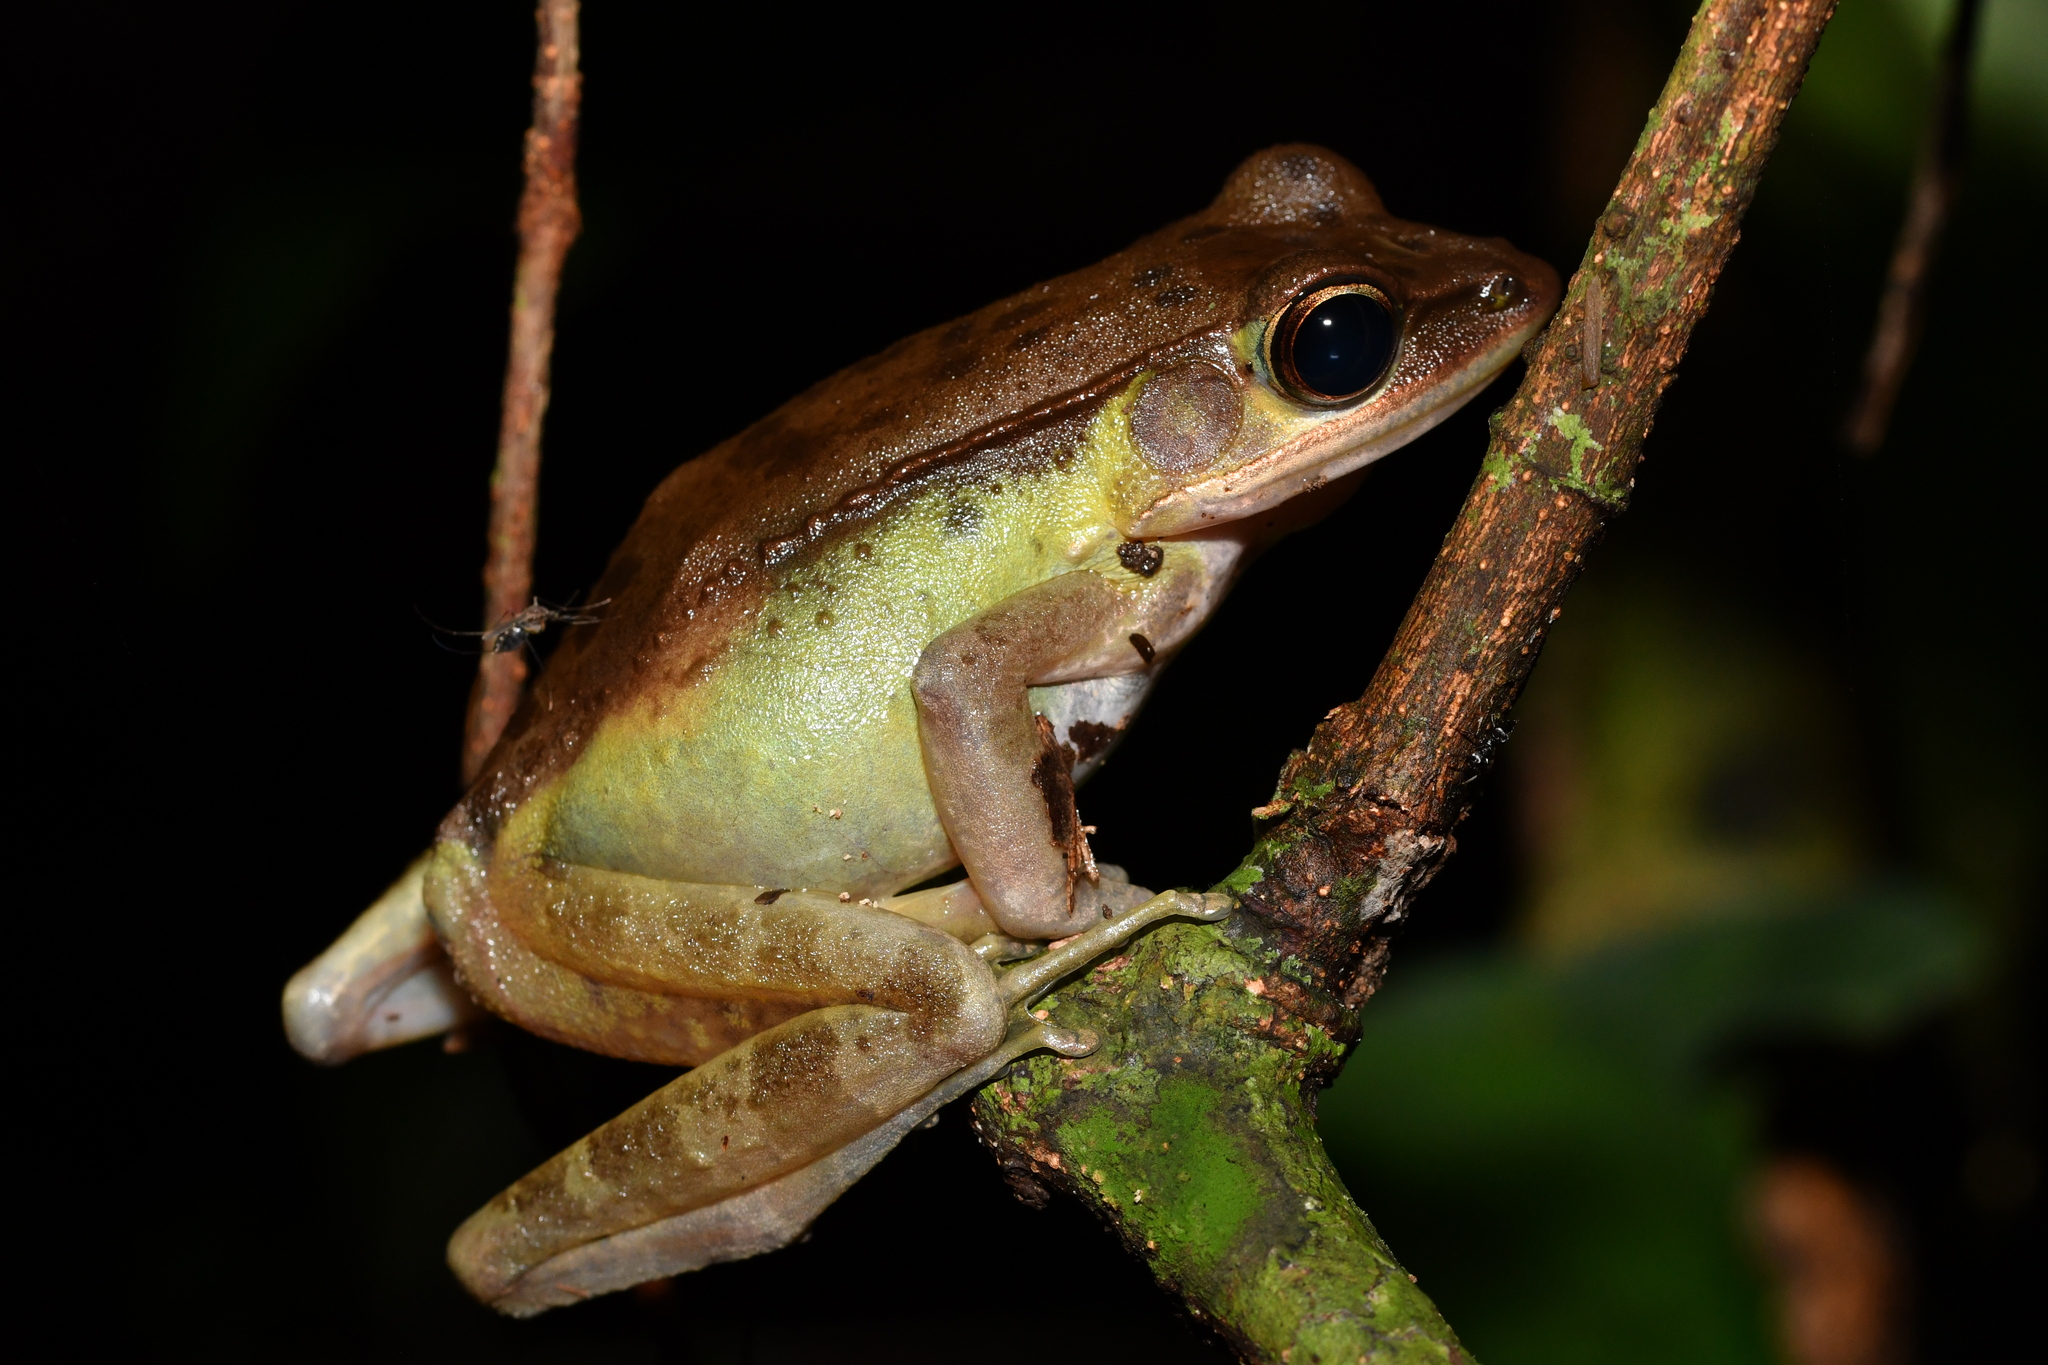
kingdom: Animalia
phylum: Chordata
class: Amphibia
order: Anura
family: Ranidae
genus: Amnirana
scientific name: Amnirana parva
